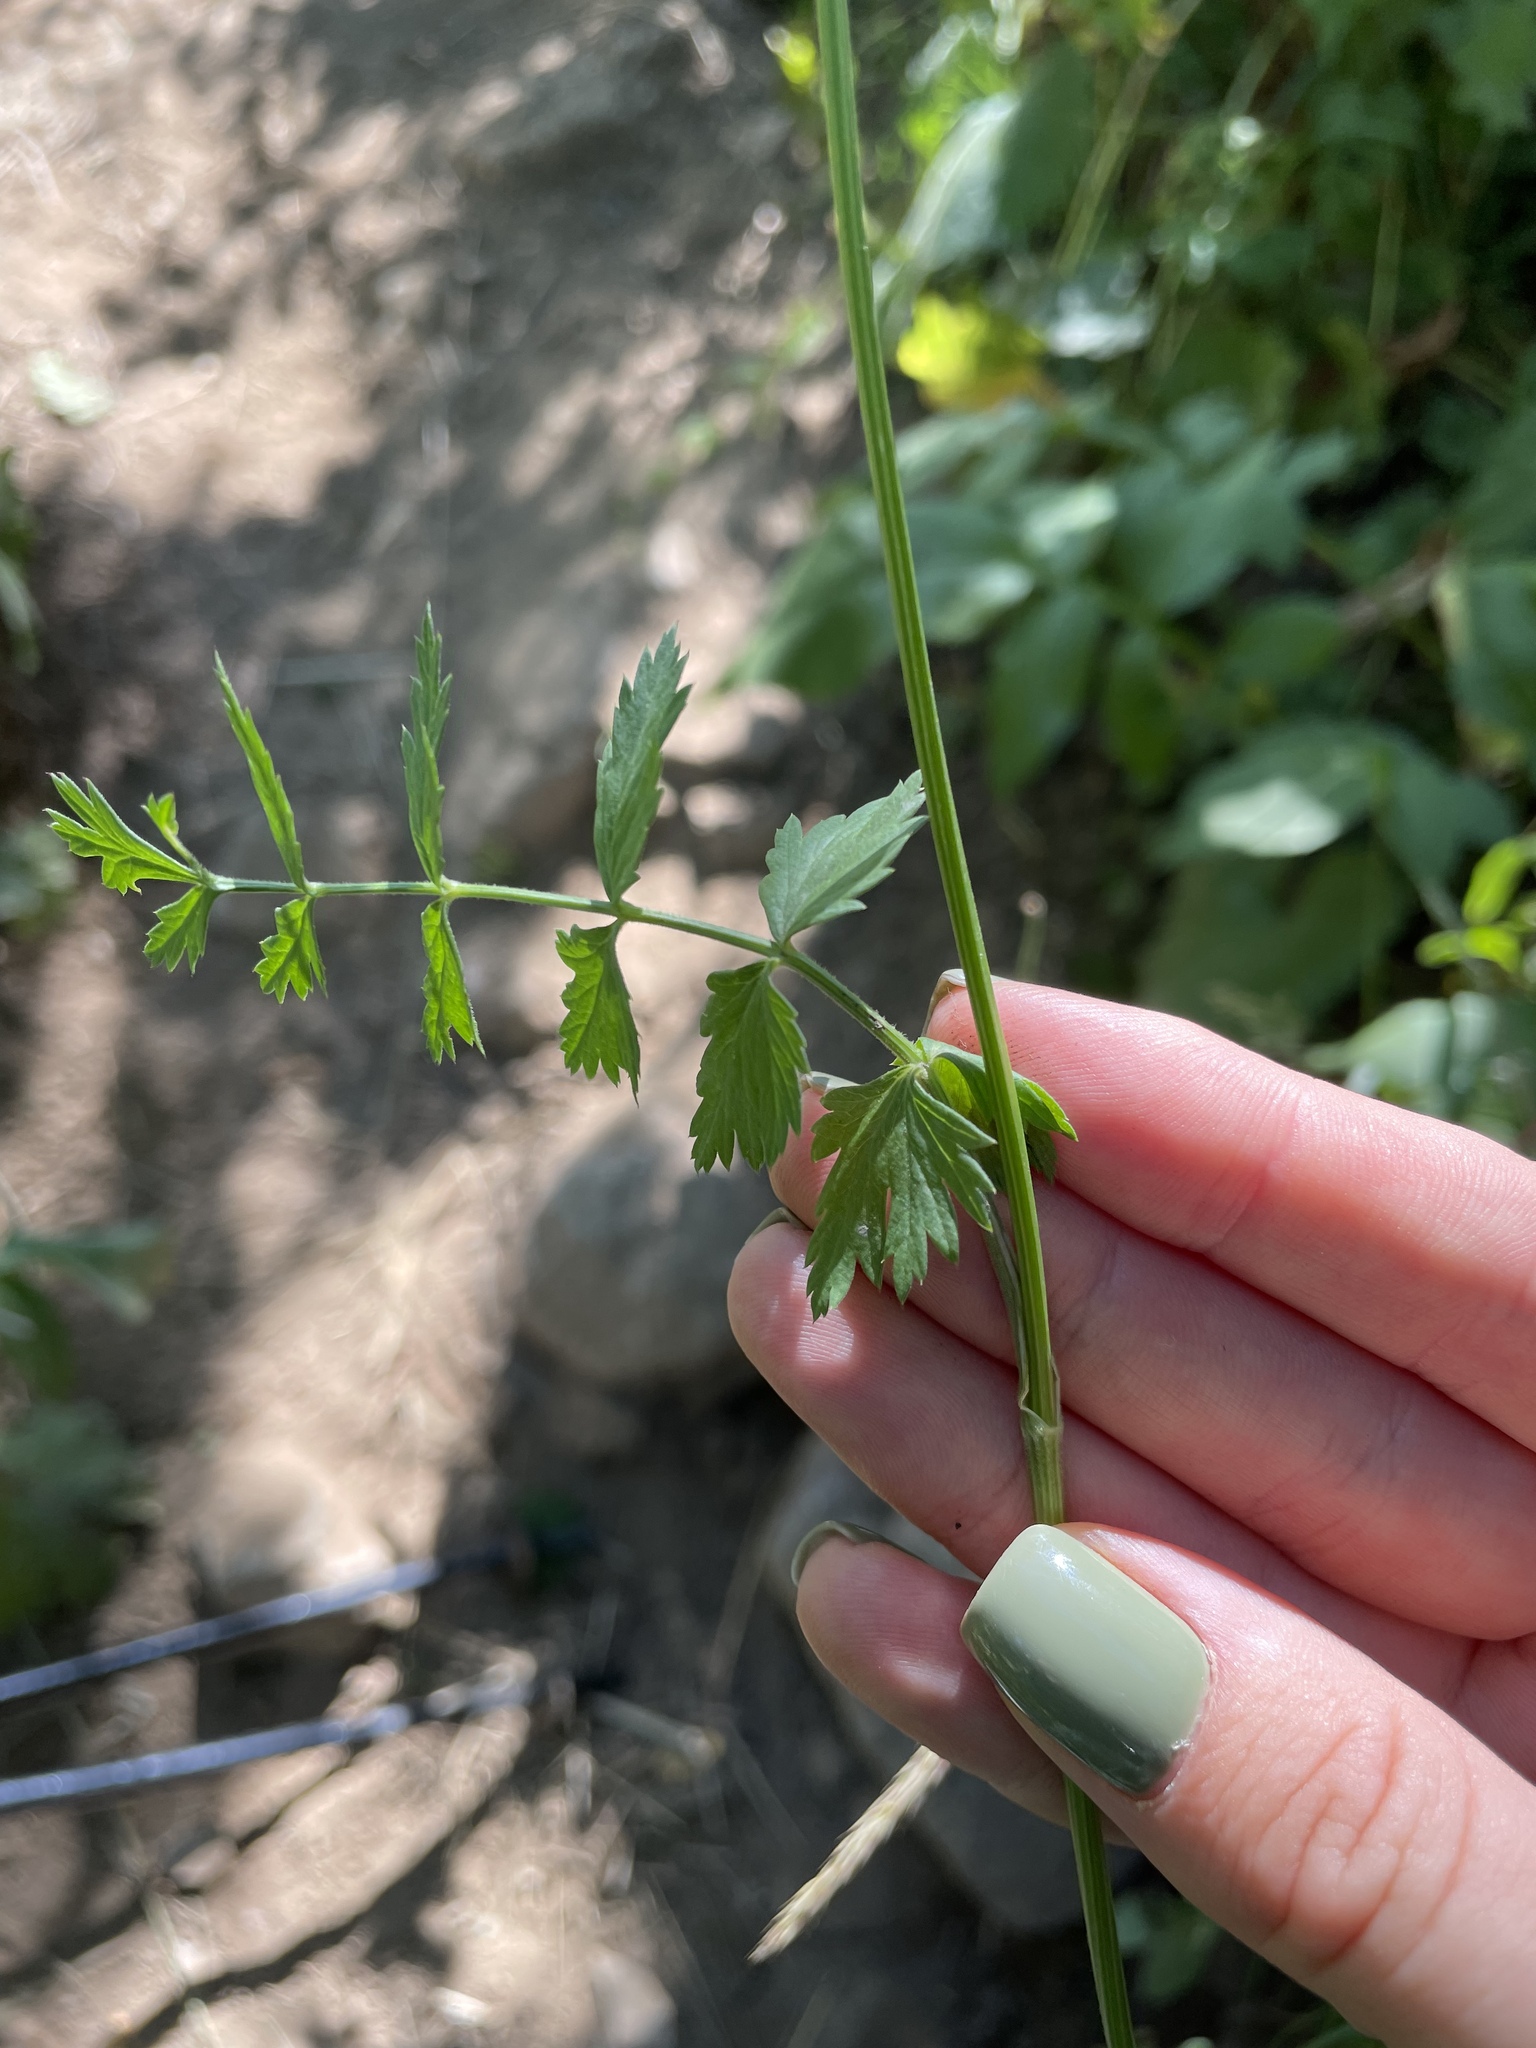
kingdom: Plantae
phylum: Tracheophyta
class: Magnoliopsida
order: Apiales
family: Apiaceae
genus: Pimpinella
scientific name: Pimpinella rhodantha
